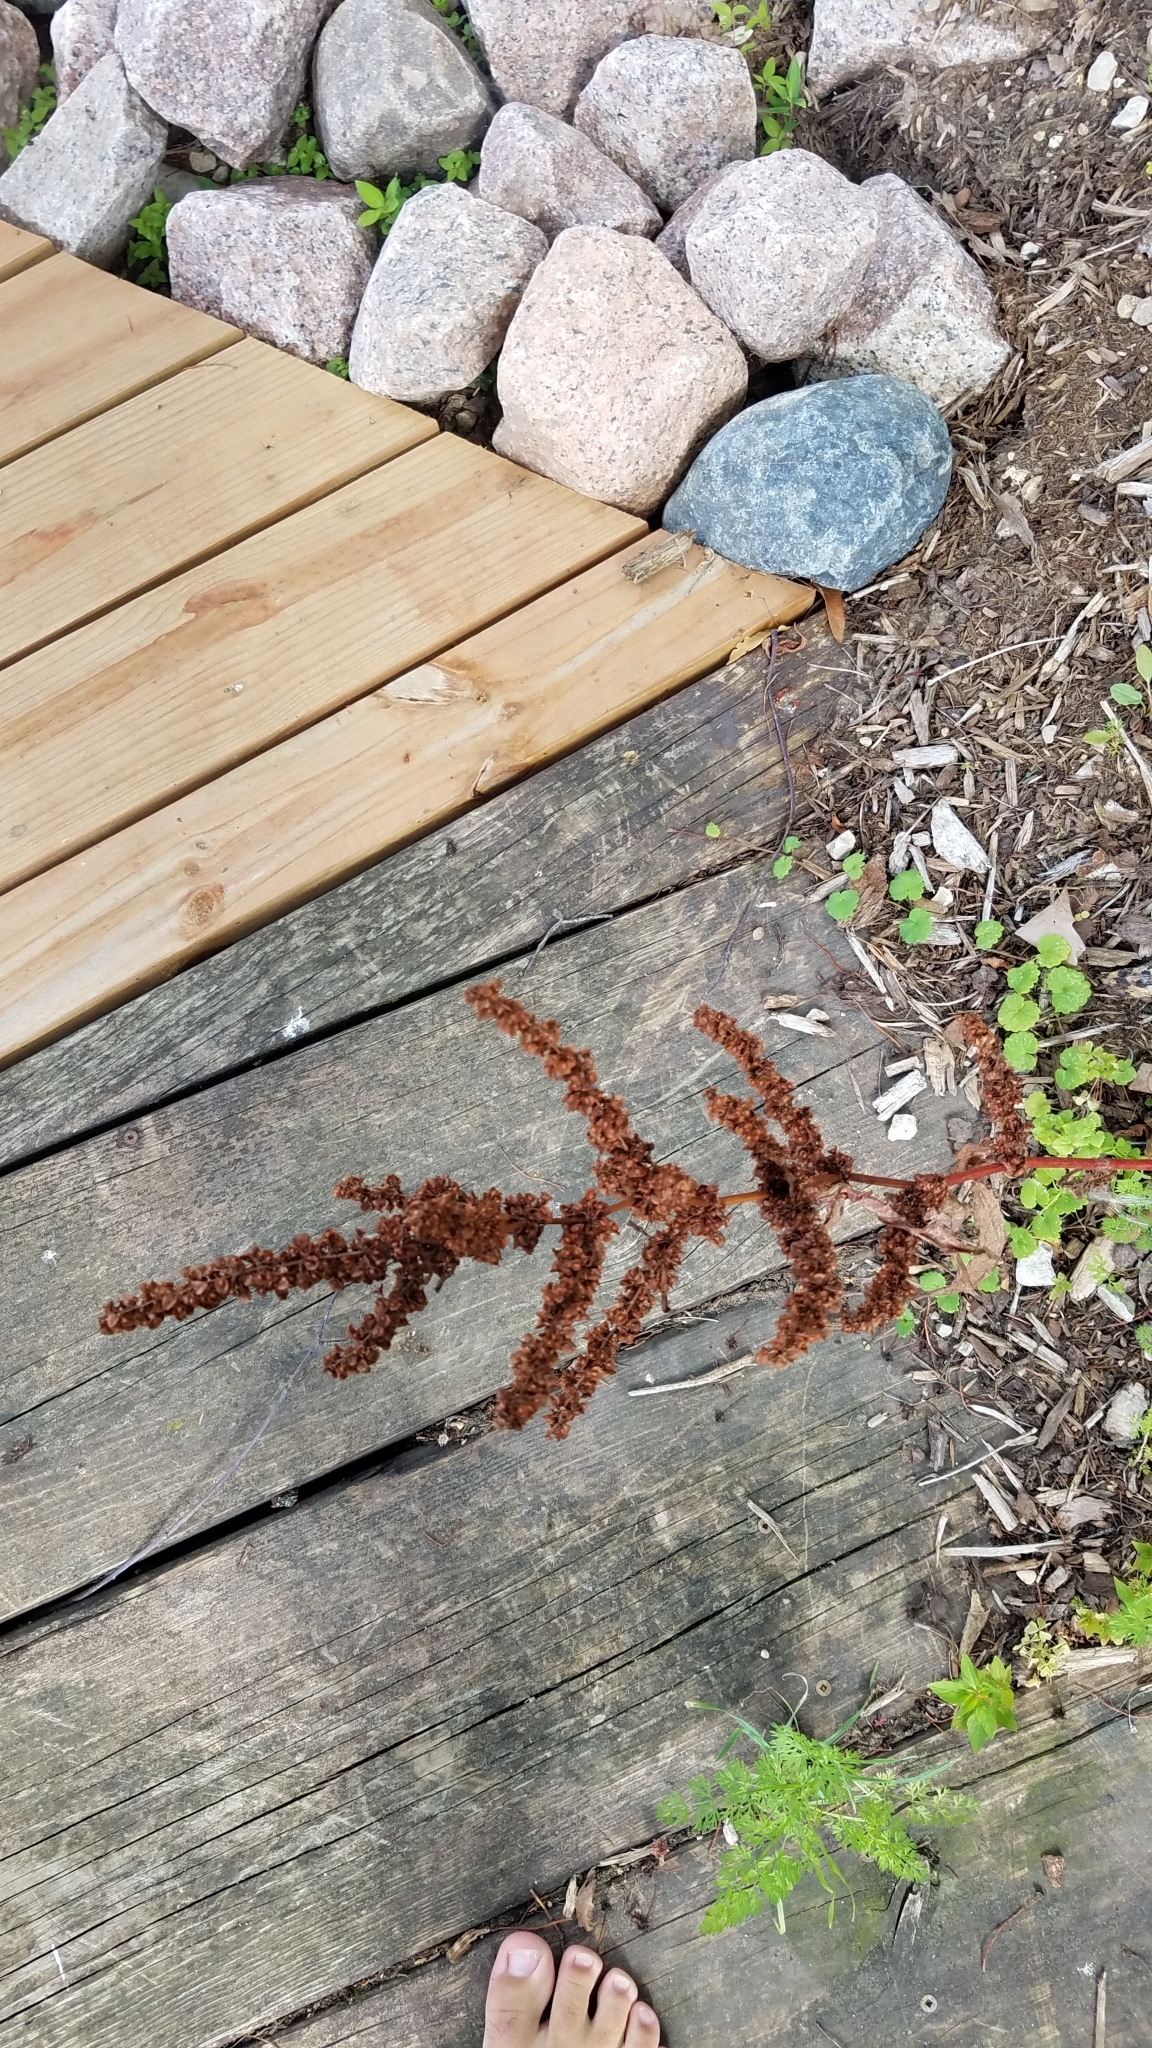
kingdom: Plantae
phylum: Tracheophyta
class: Magnoliopsida
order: Caryophyllales
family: Polygonaceae
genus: Rumex
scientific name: Rumex crispus
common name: Curled dock
